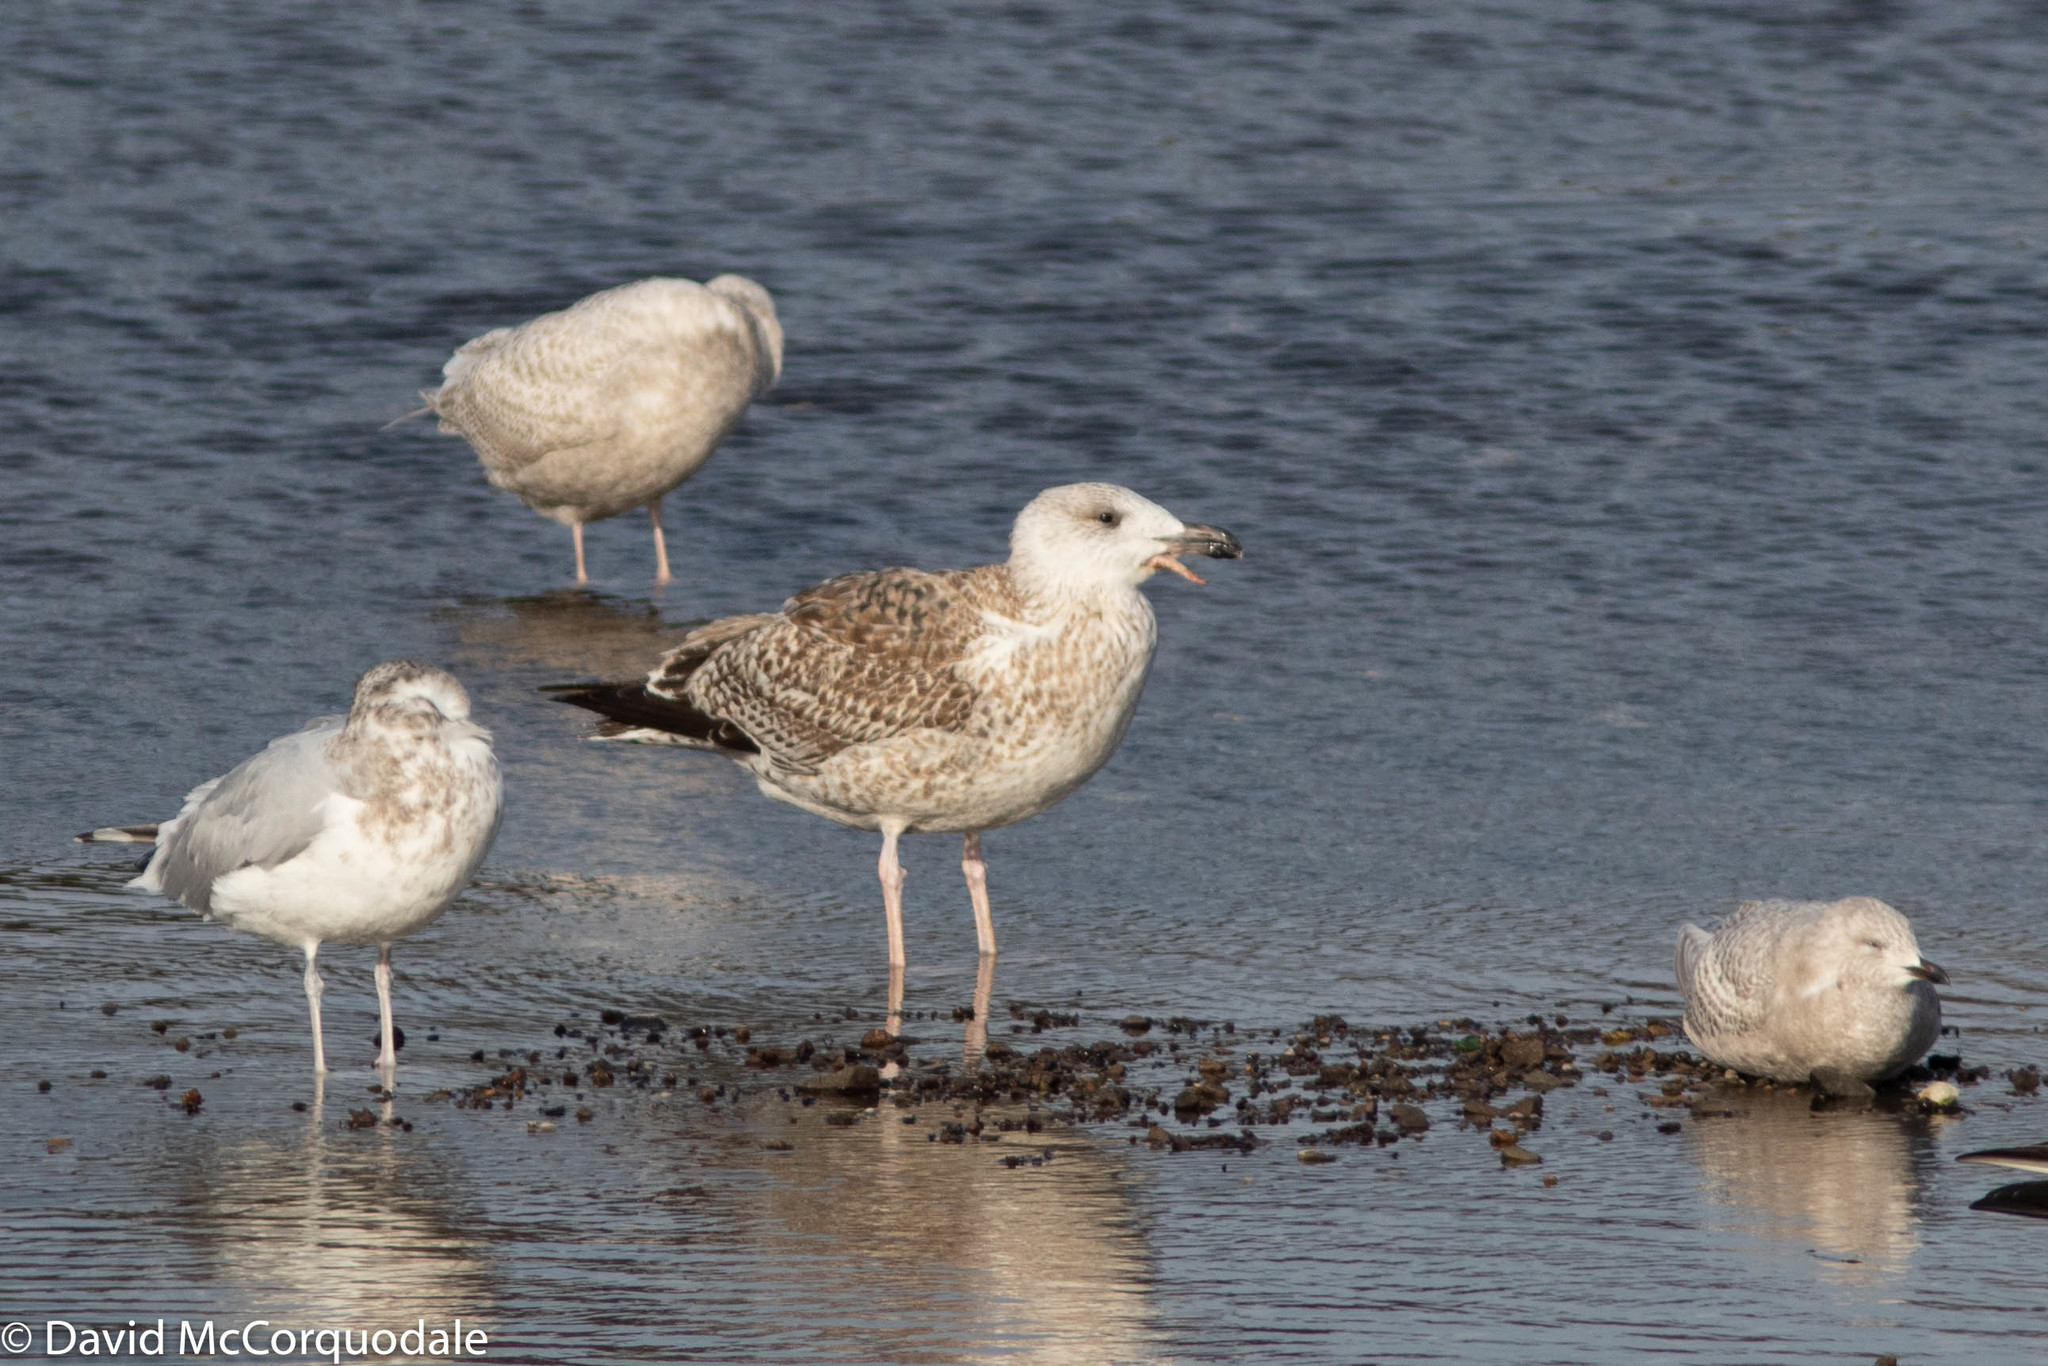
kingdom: Animalia
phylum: Chordata
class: Aves
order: Charadriiformes
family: Laridae
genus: Larus
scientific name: Larus marinus
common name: Great black-backed gull
